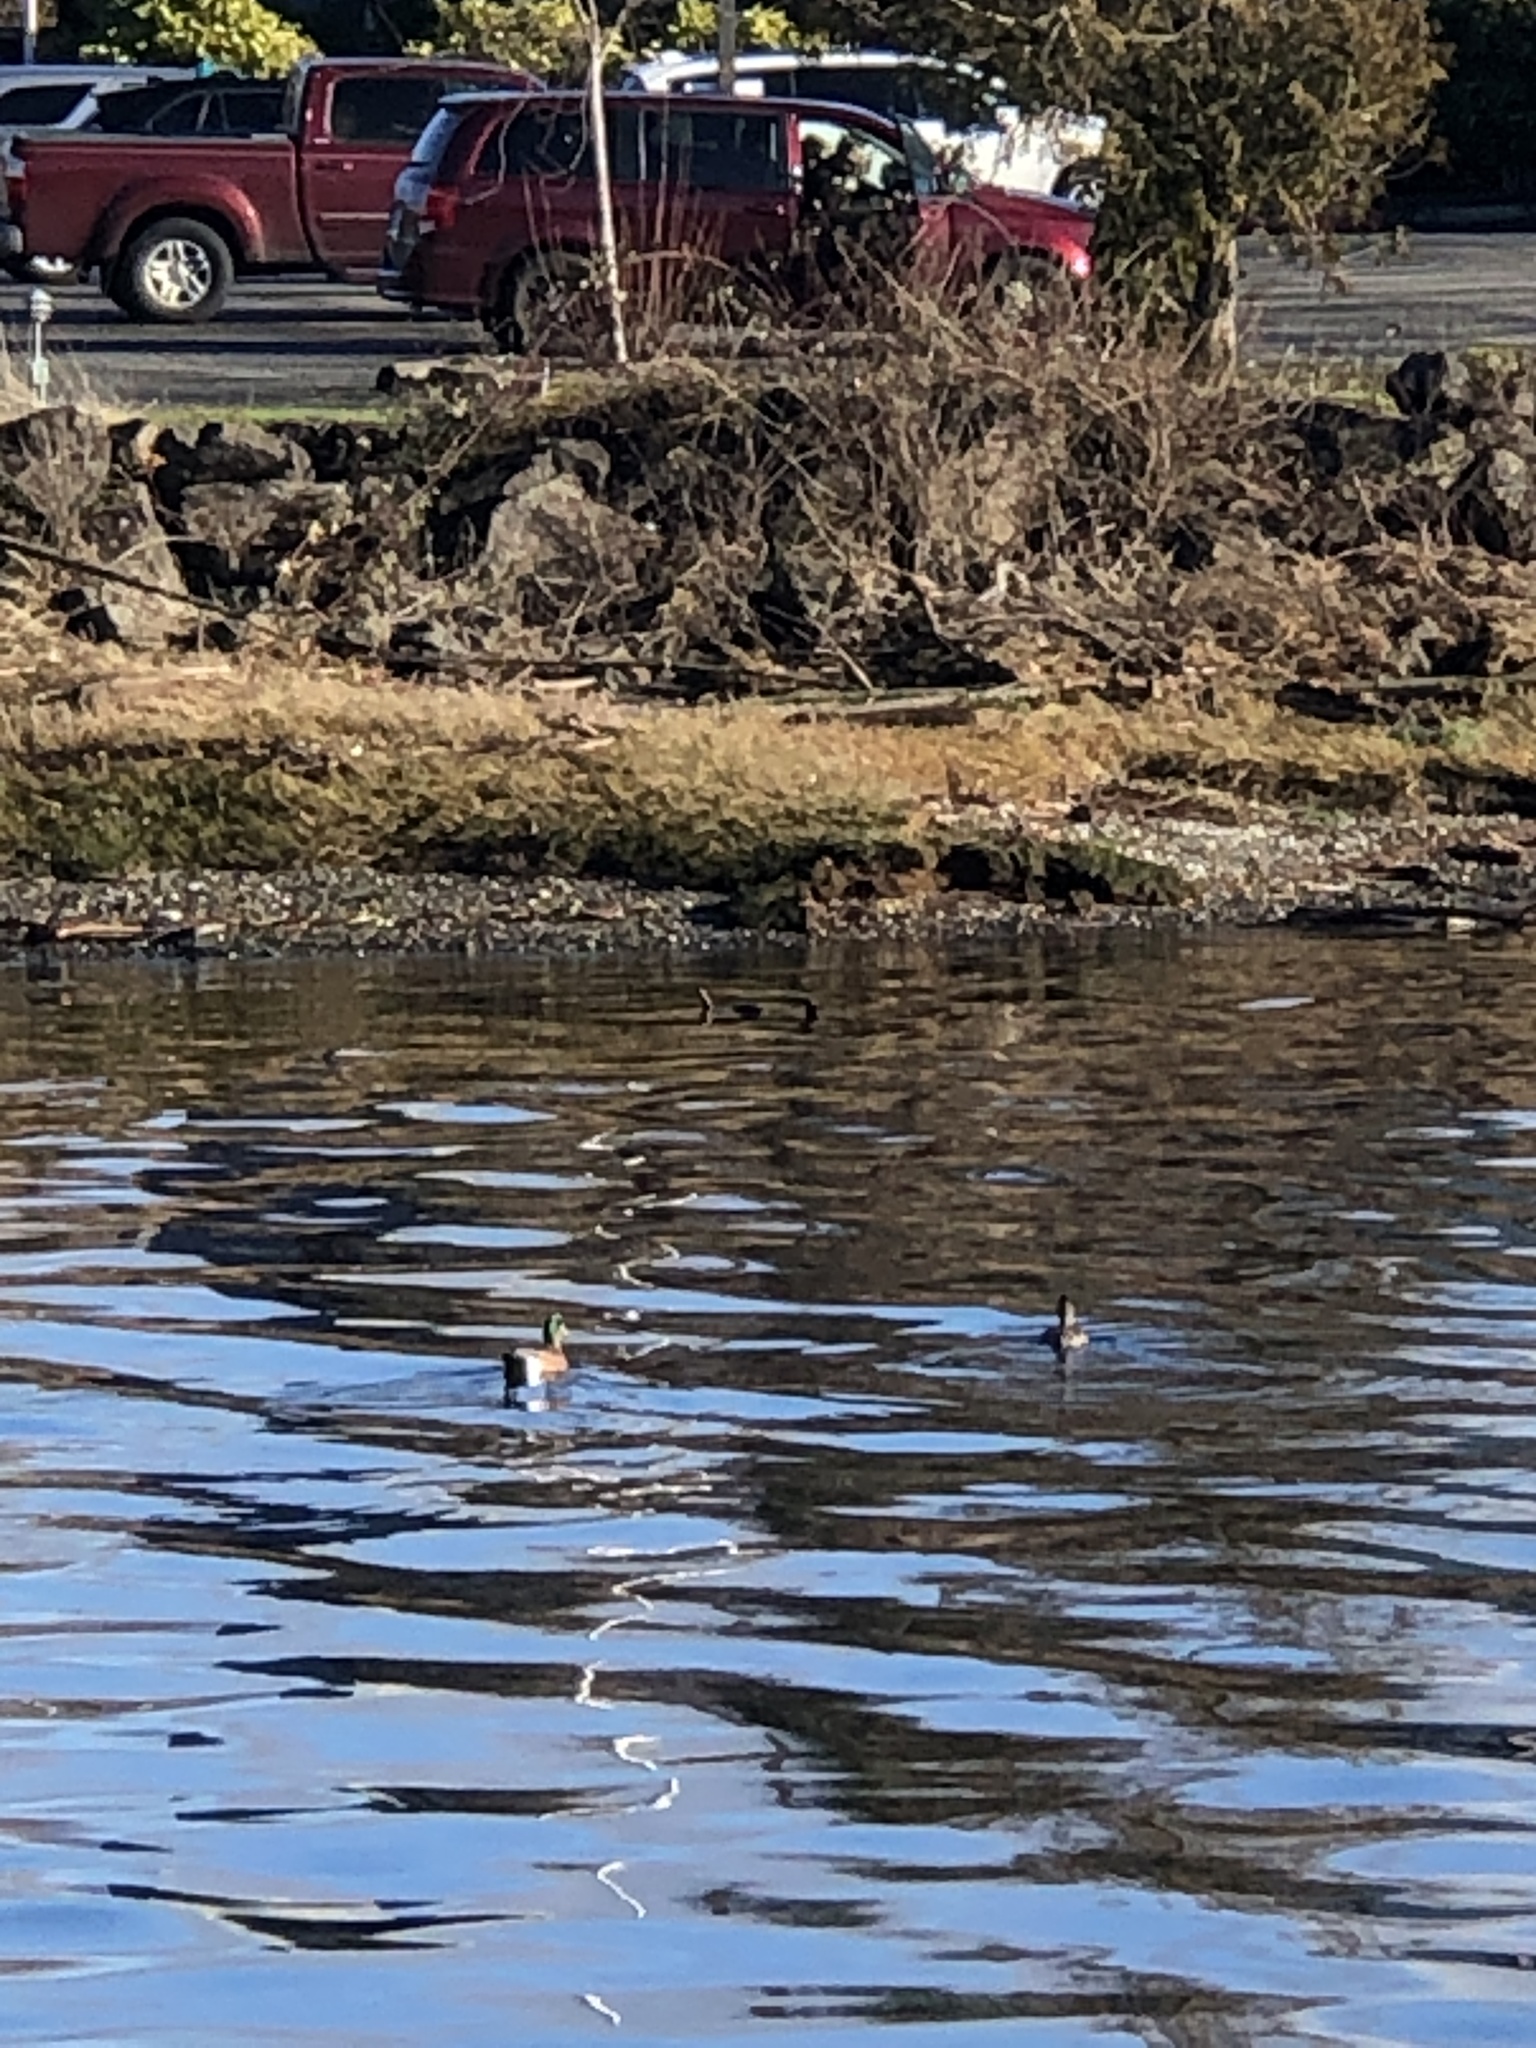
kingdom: Animalia
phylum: Chordata
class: Aves
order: Anseriformes
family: Anatidae
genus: Mareca
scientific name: Mareca americana
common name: American wigeon
